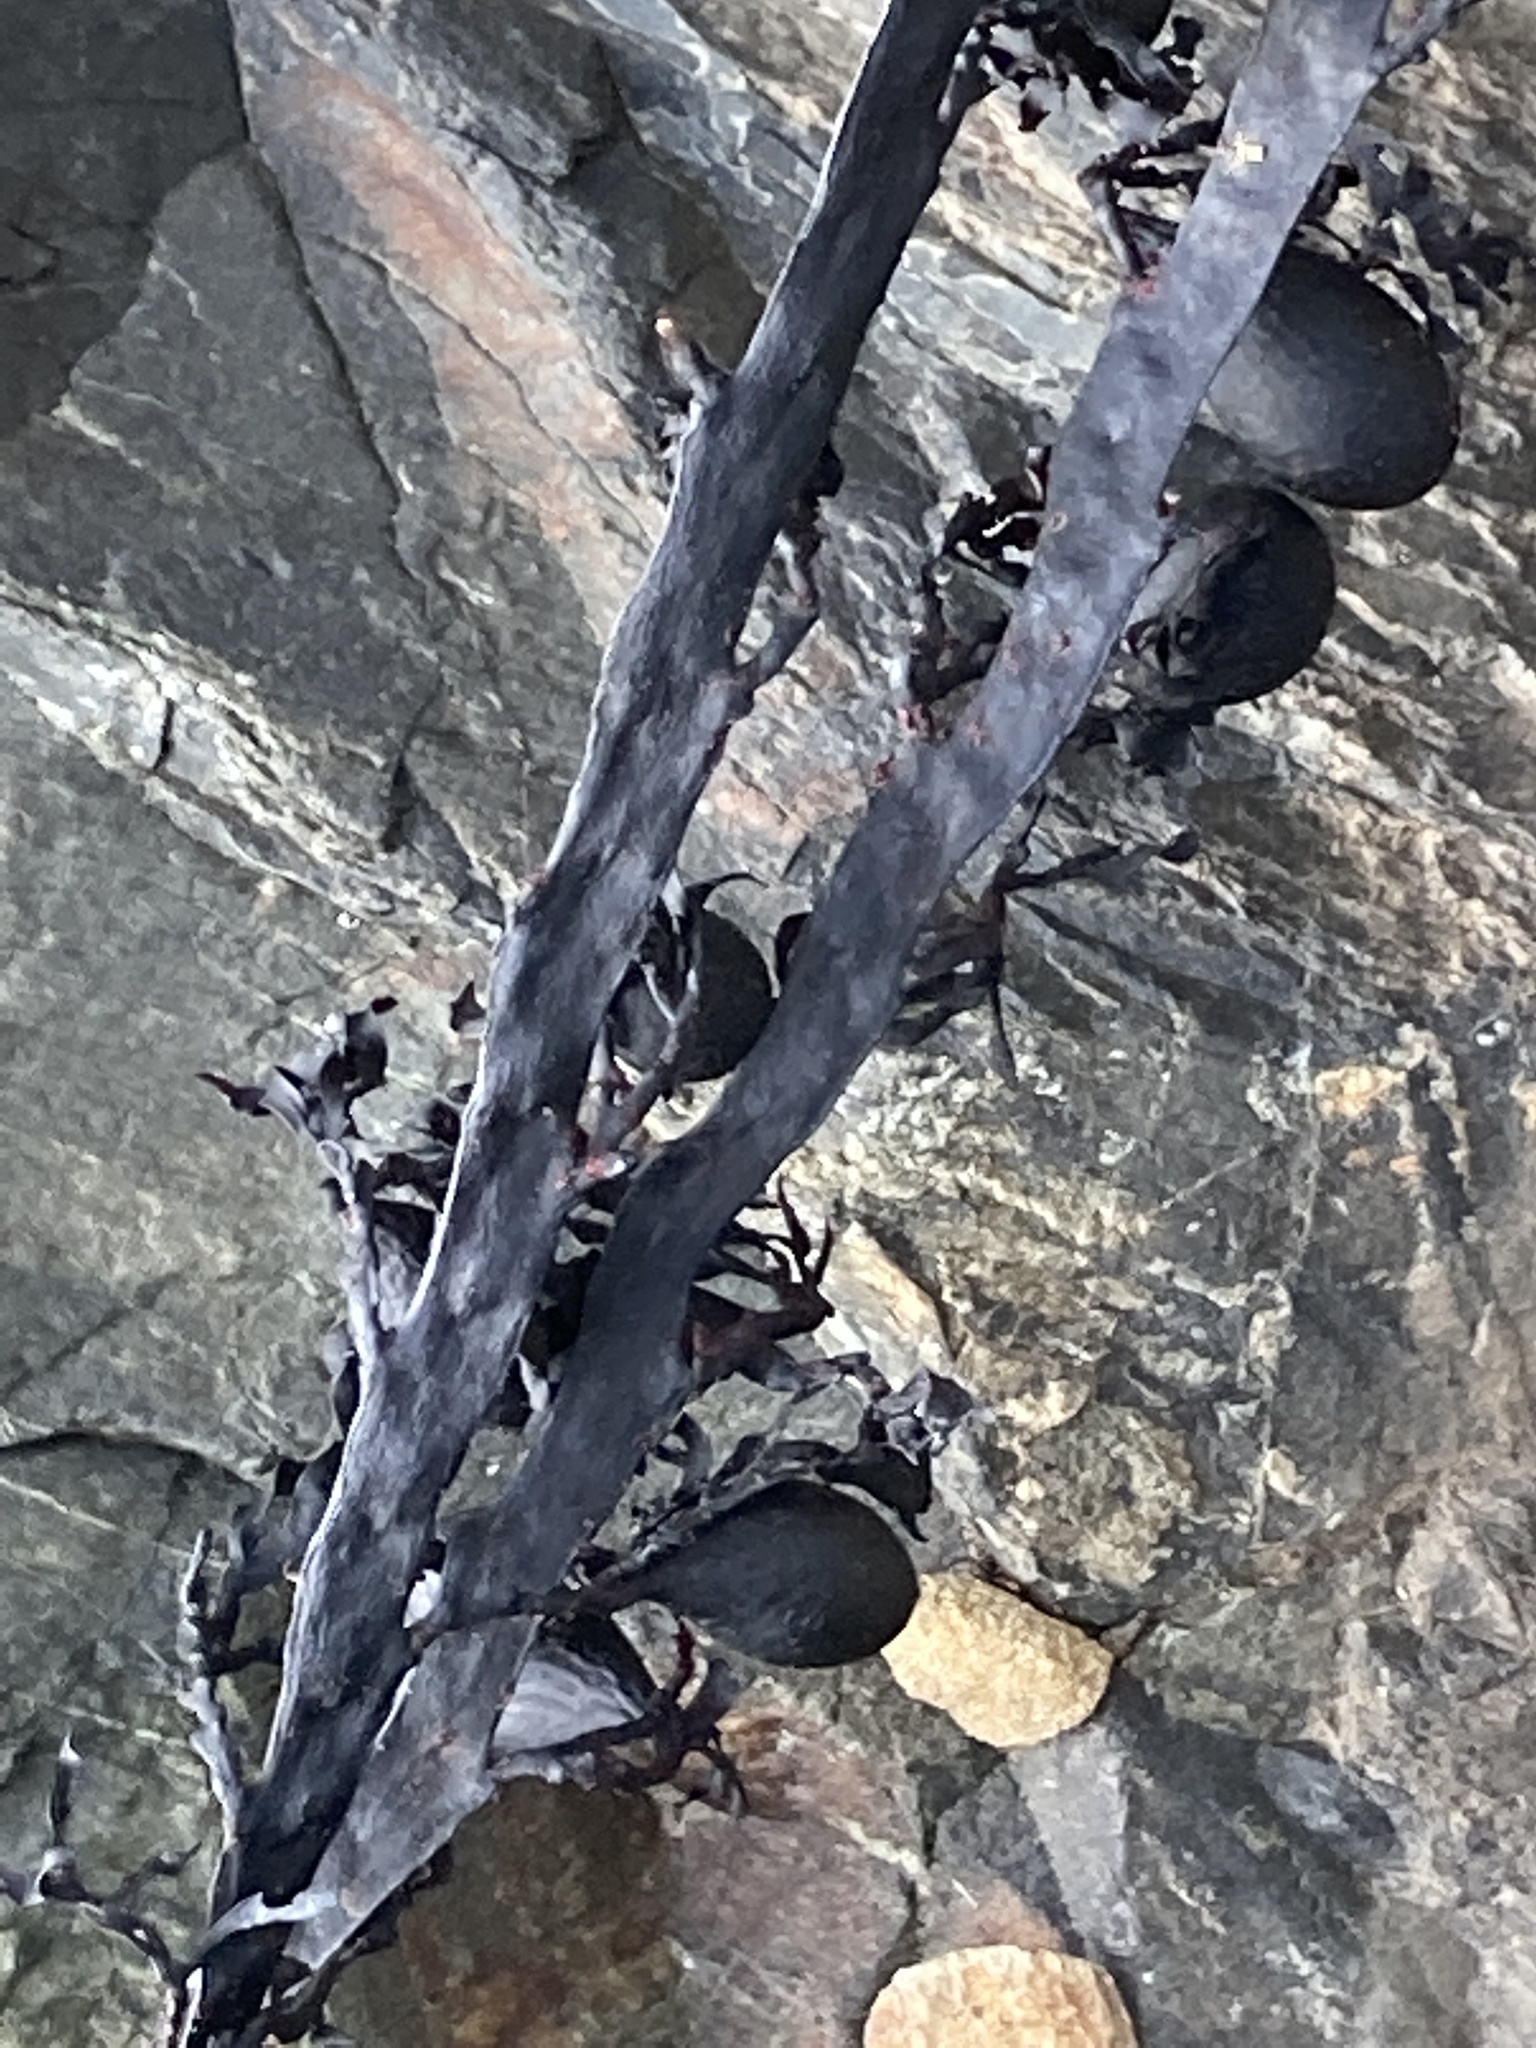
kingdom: Chromista
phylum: Ochrophyta
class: Phaeophyceae
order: Fucales
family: Sargassaceae
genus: Carpophyllum
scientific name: Carpophyllum maschalocarpum
